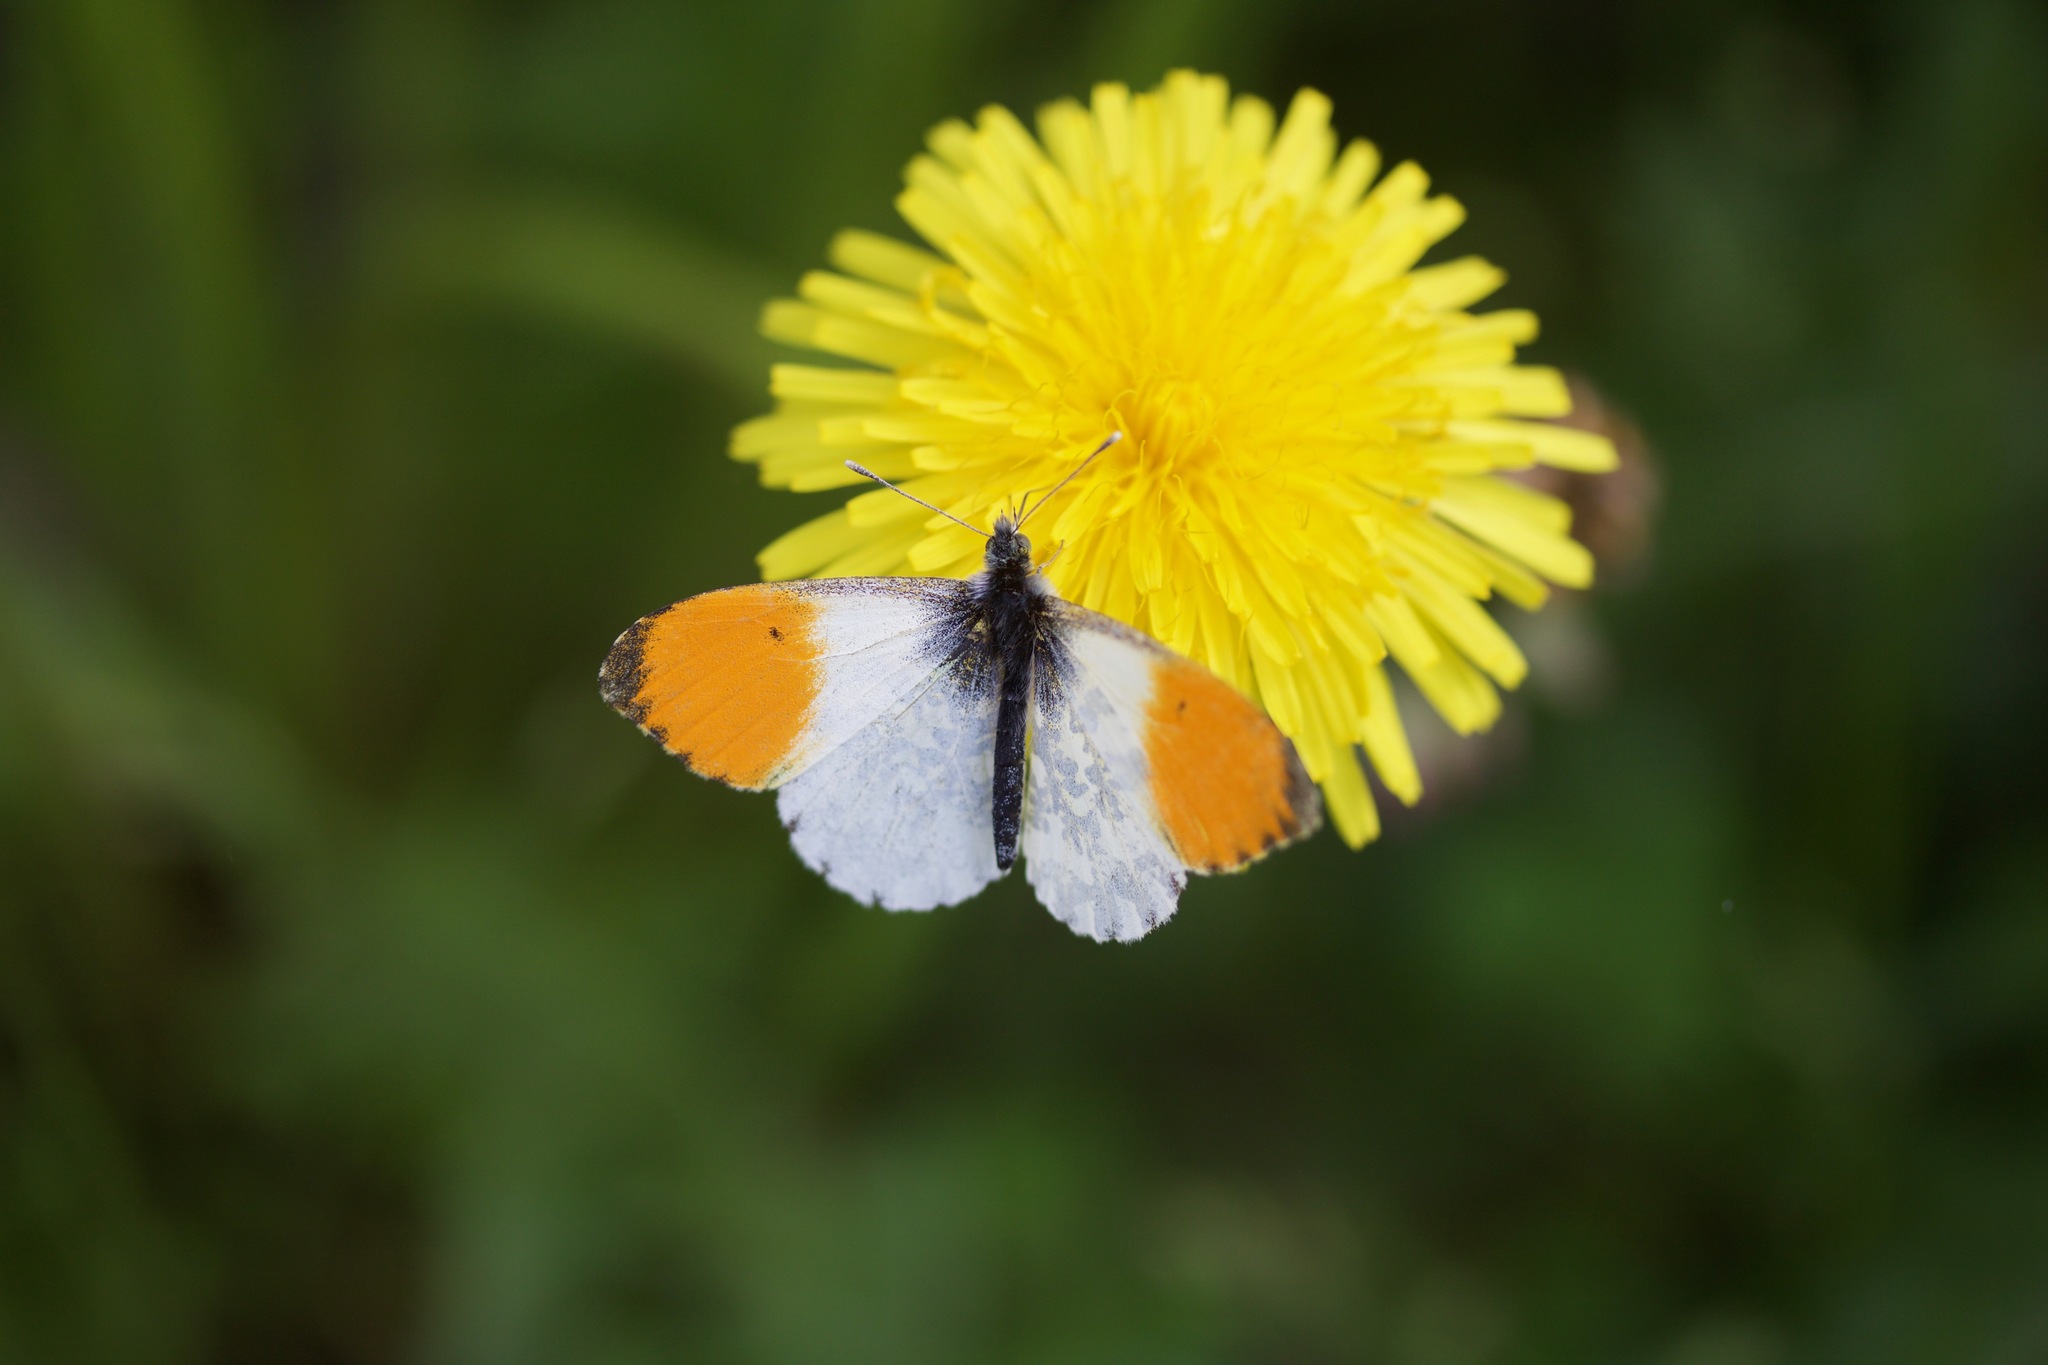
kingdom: Animalia
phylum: Arthropoda
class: Insecta
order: Lepidoptera
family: Pieridae
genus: Anthocharis
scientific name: Anthocharis cardamines
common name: Orange-tip
